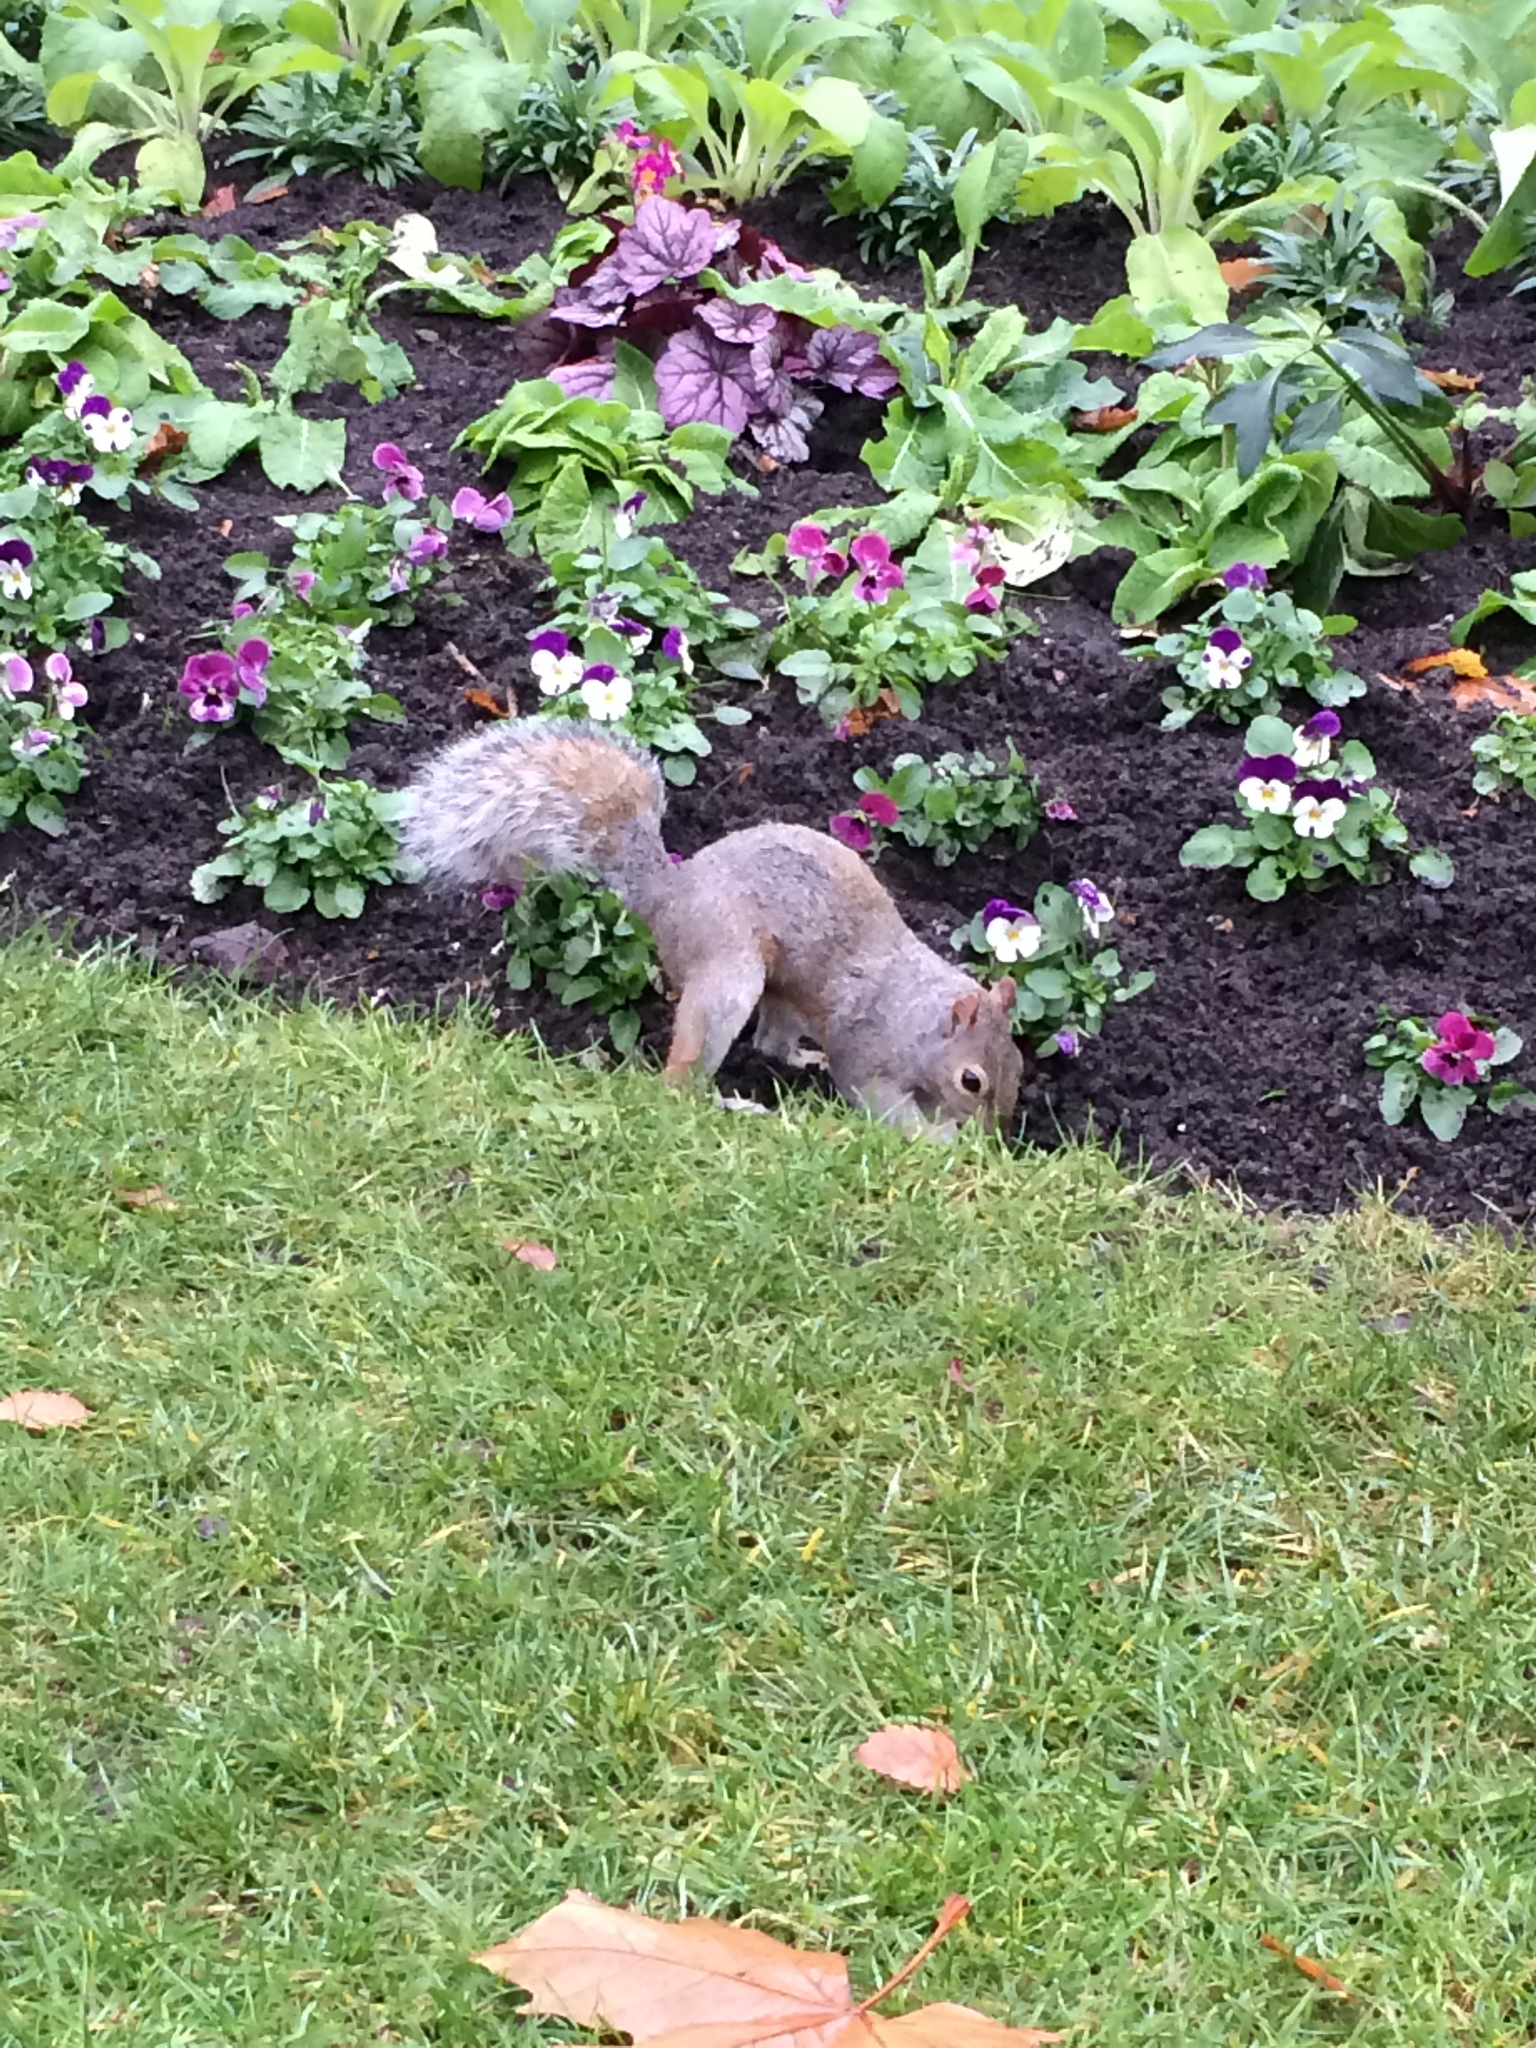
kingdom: Animalia
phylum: Chordata
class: Mammalia
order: Rodentia
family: Sciuridae
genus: Sciurus
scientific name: Sciurus carolinensis
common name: Eastern gray squirrel
